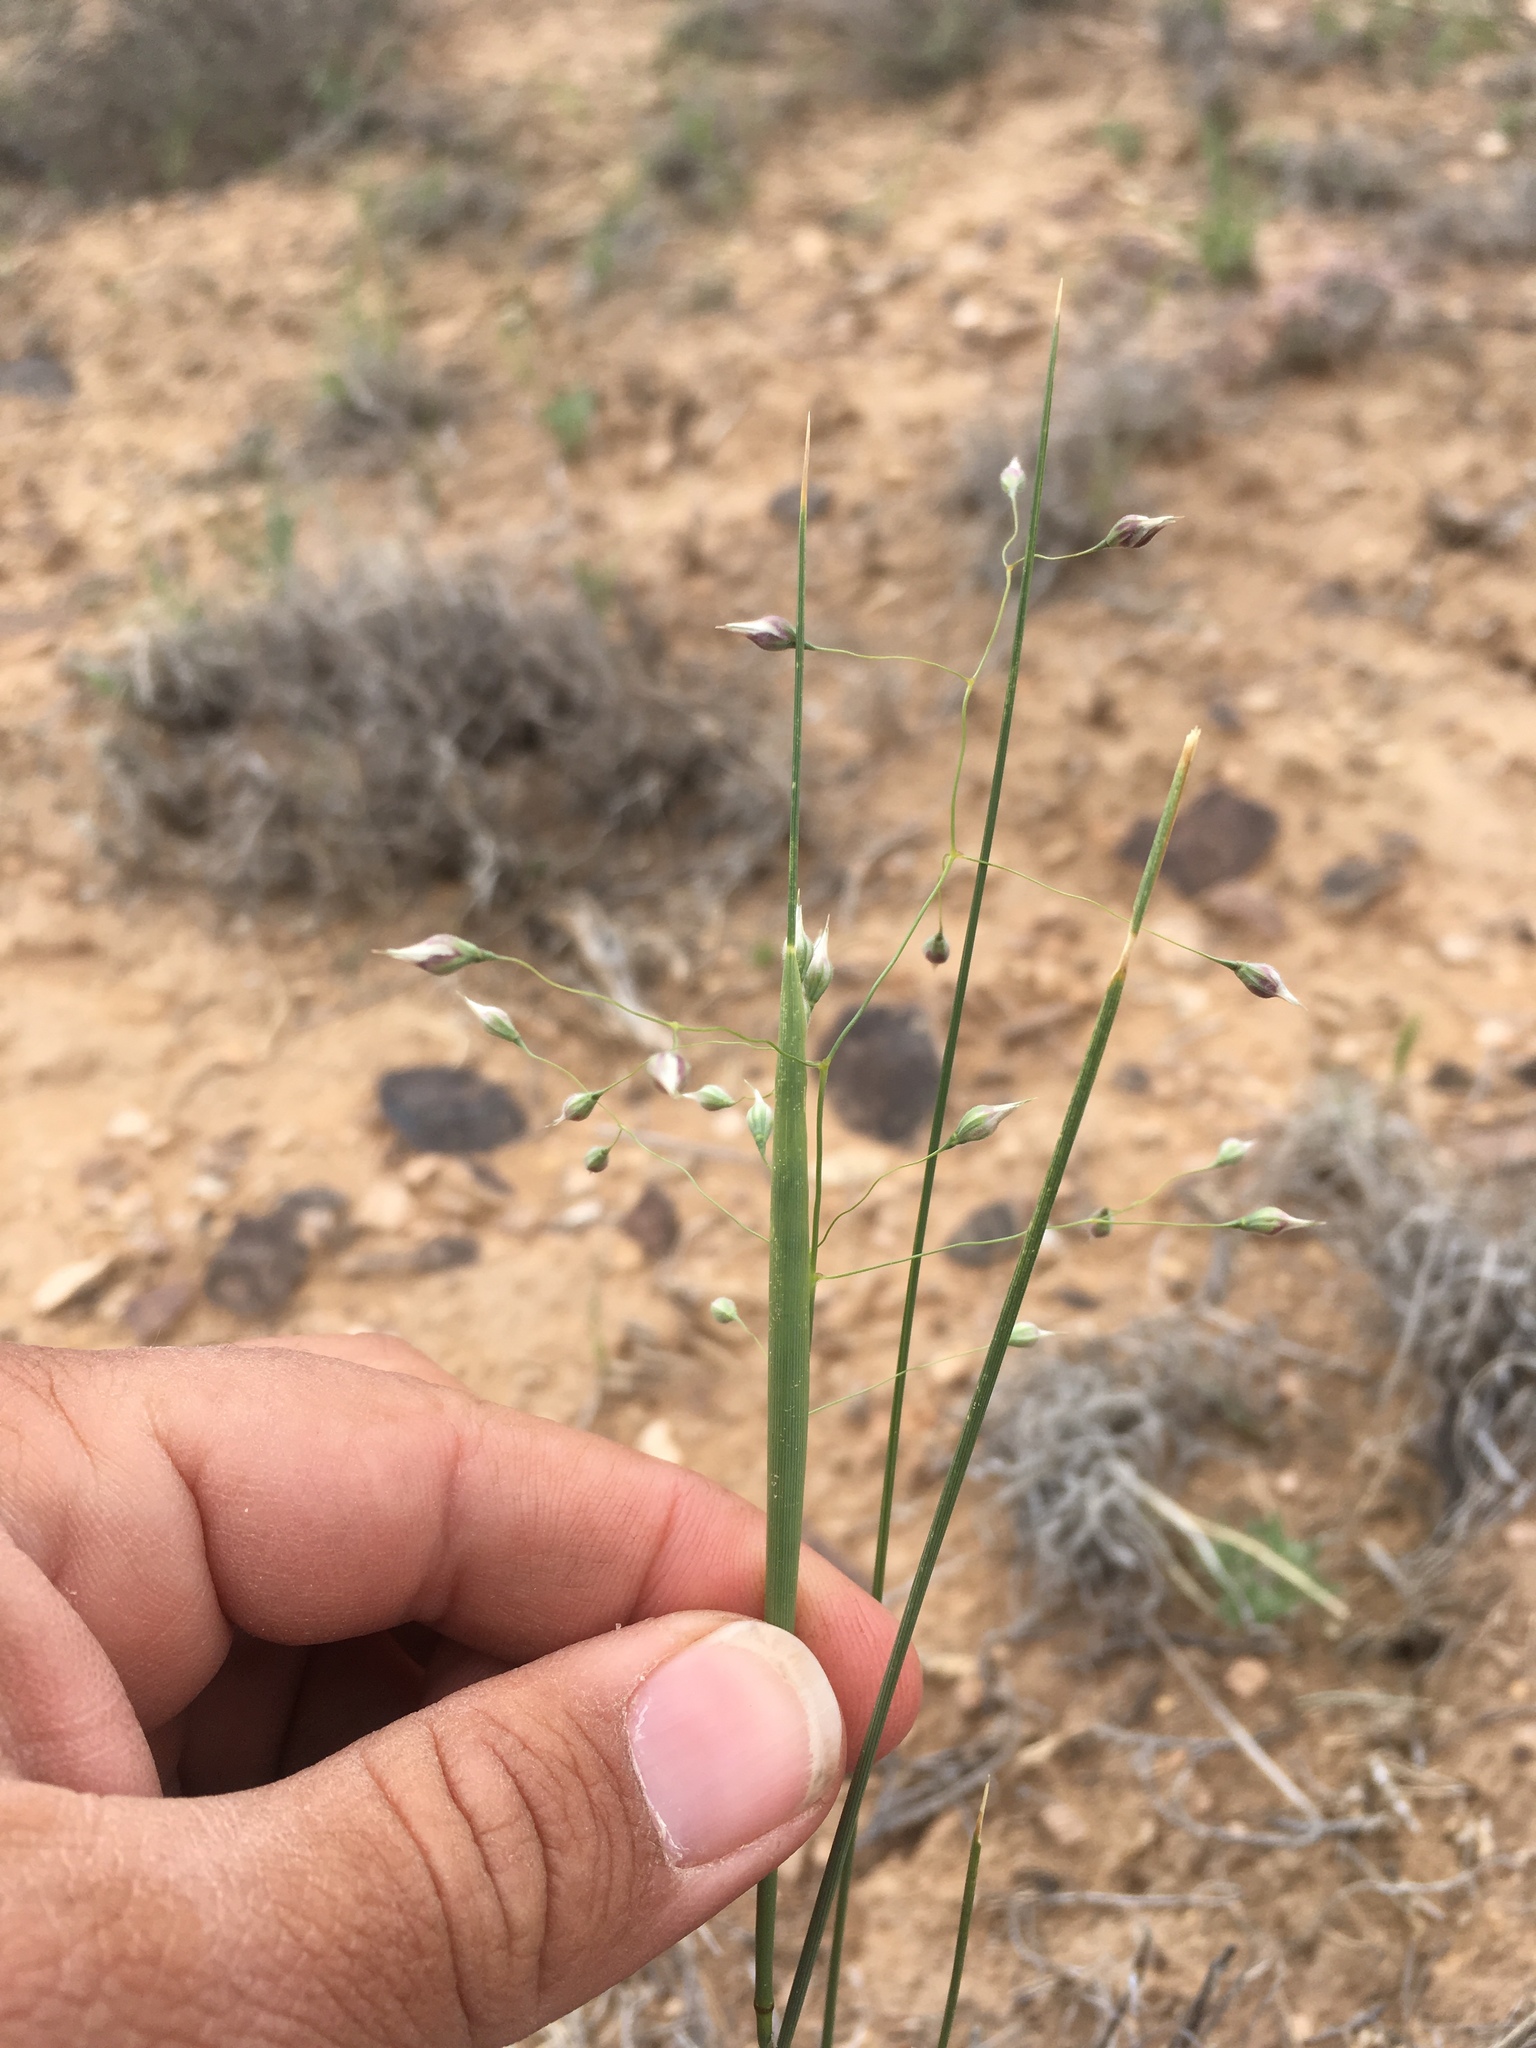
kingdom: Plantae
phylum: Tracheophyta
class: Liliopsida
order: Poales
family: Poaceae
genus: Eriocoma
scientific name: Eriocoma hymenoides
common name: Indian mountain ricegrass
